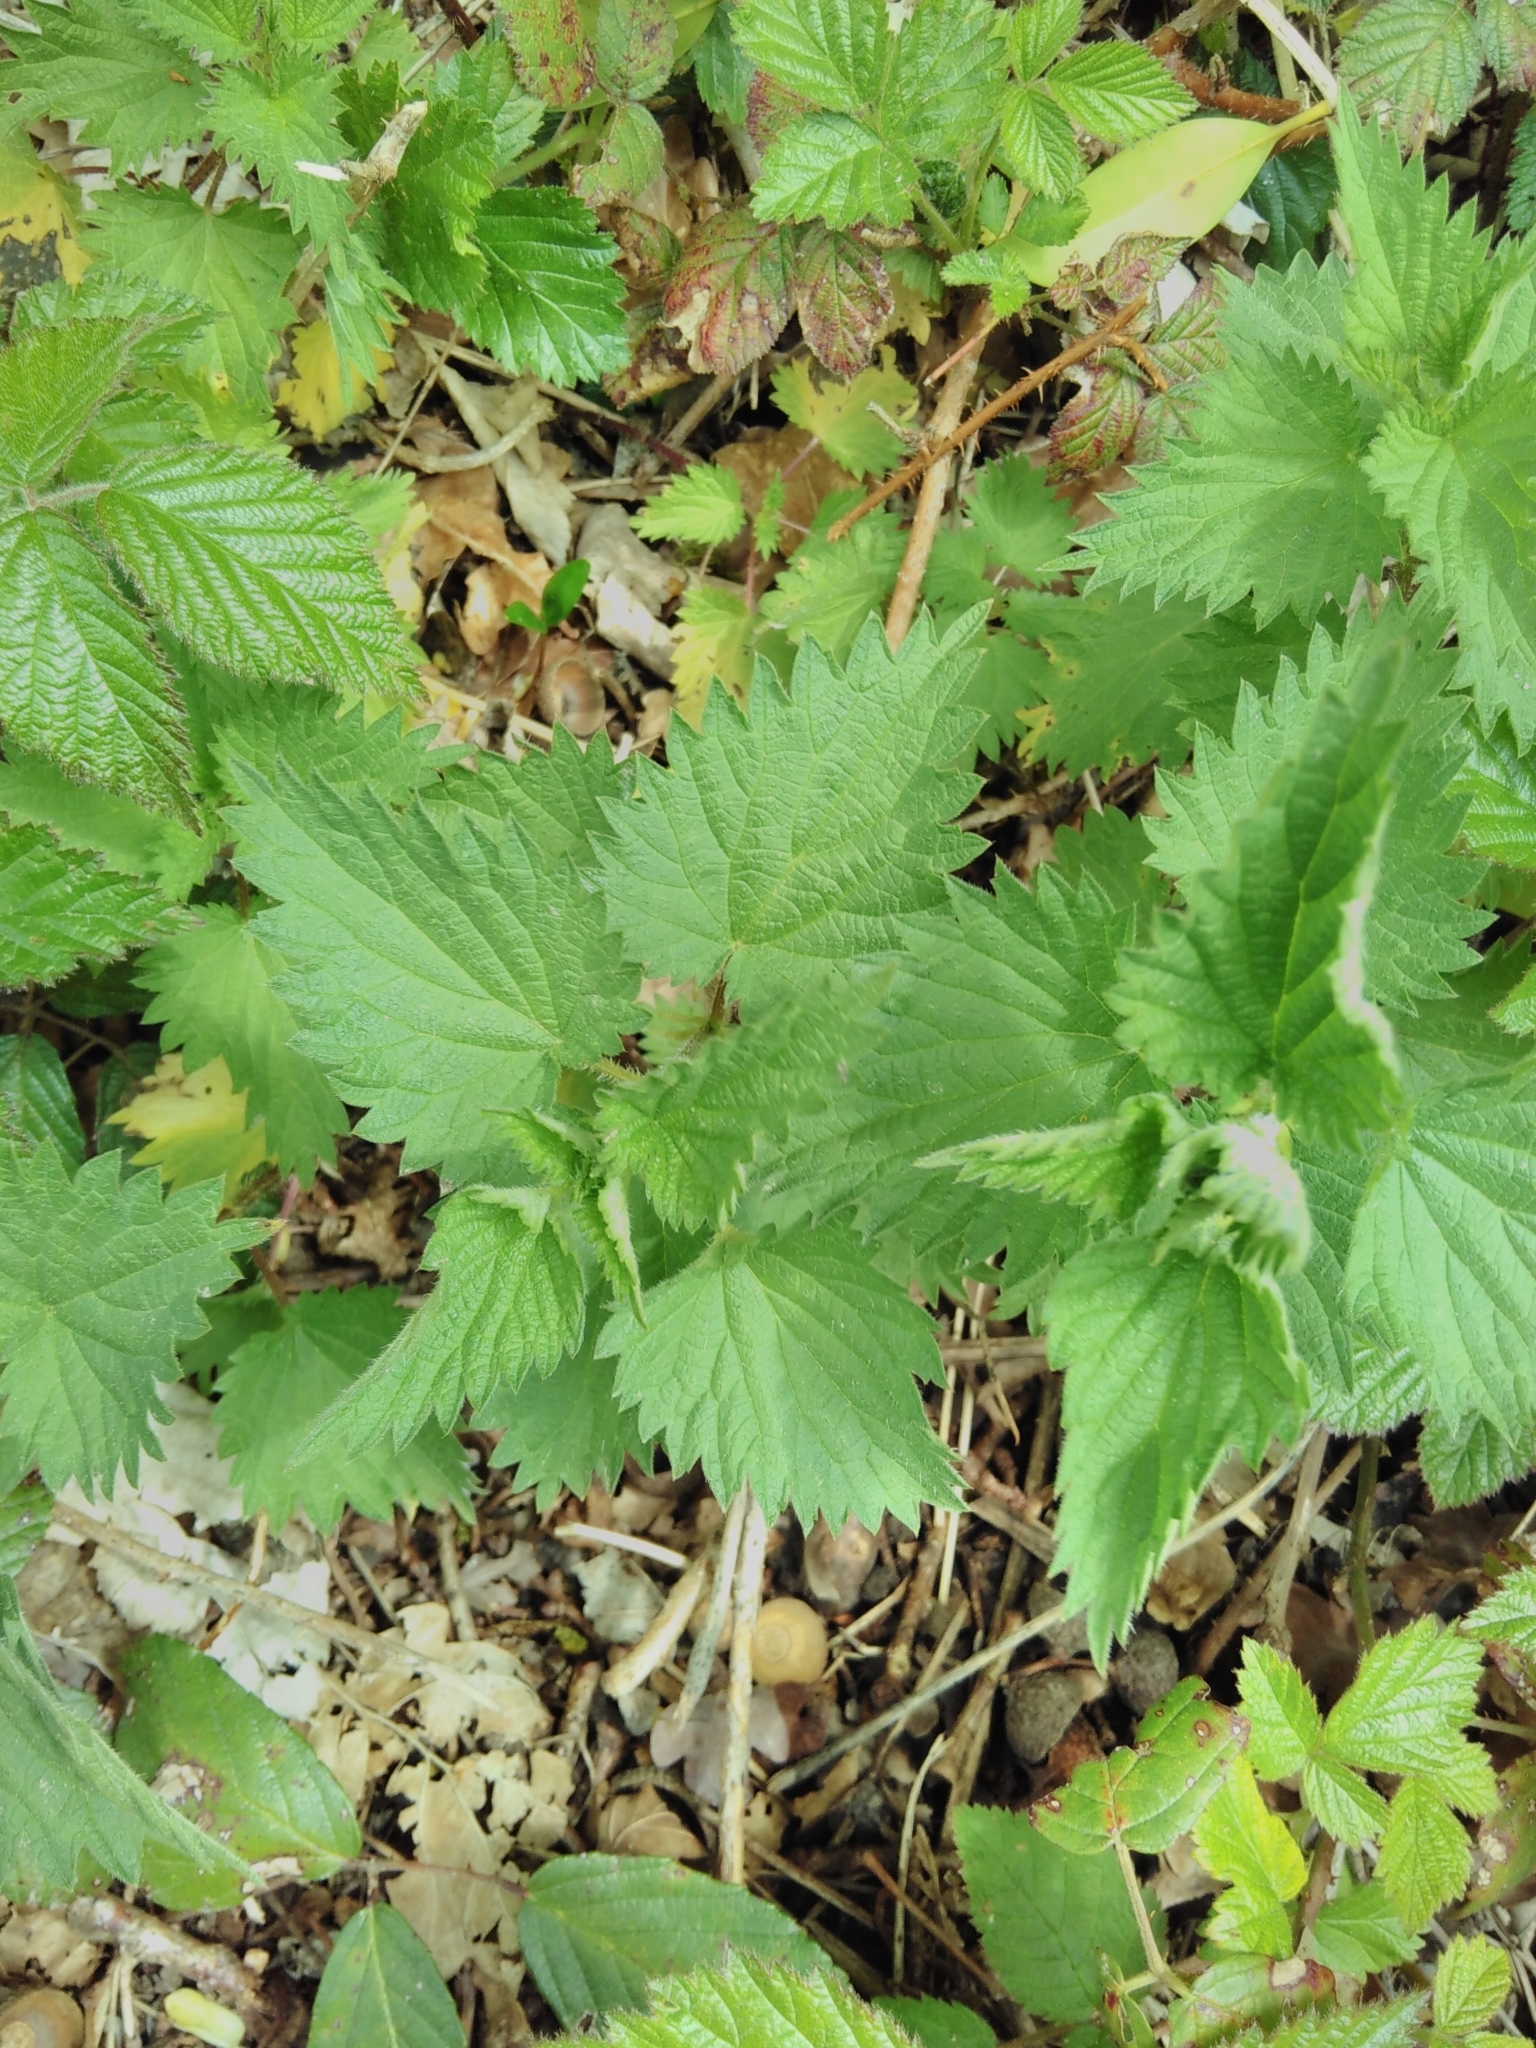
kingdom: Plantae
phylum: Tracheophyta
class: Magnoliopsida
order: Rosales
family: Urticaceae
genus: Urtica
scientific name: Urtica dioica
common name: Common nettle
